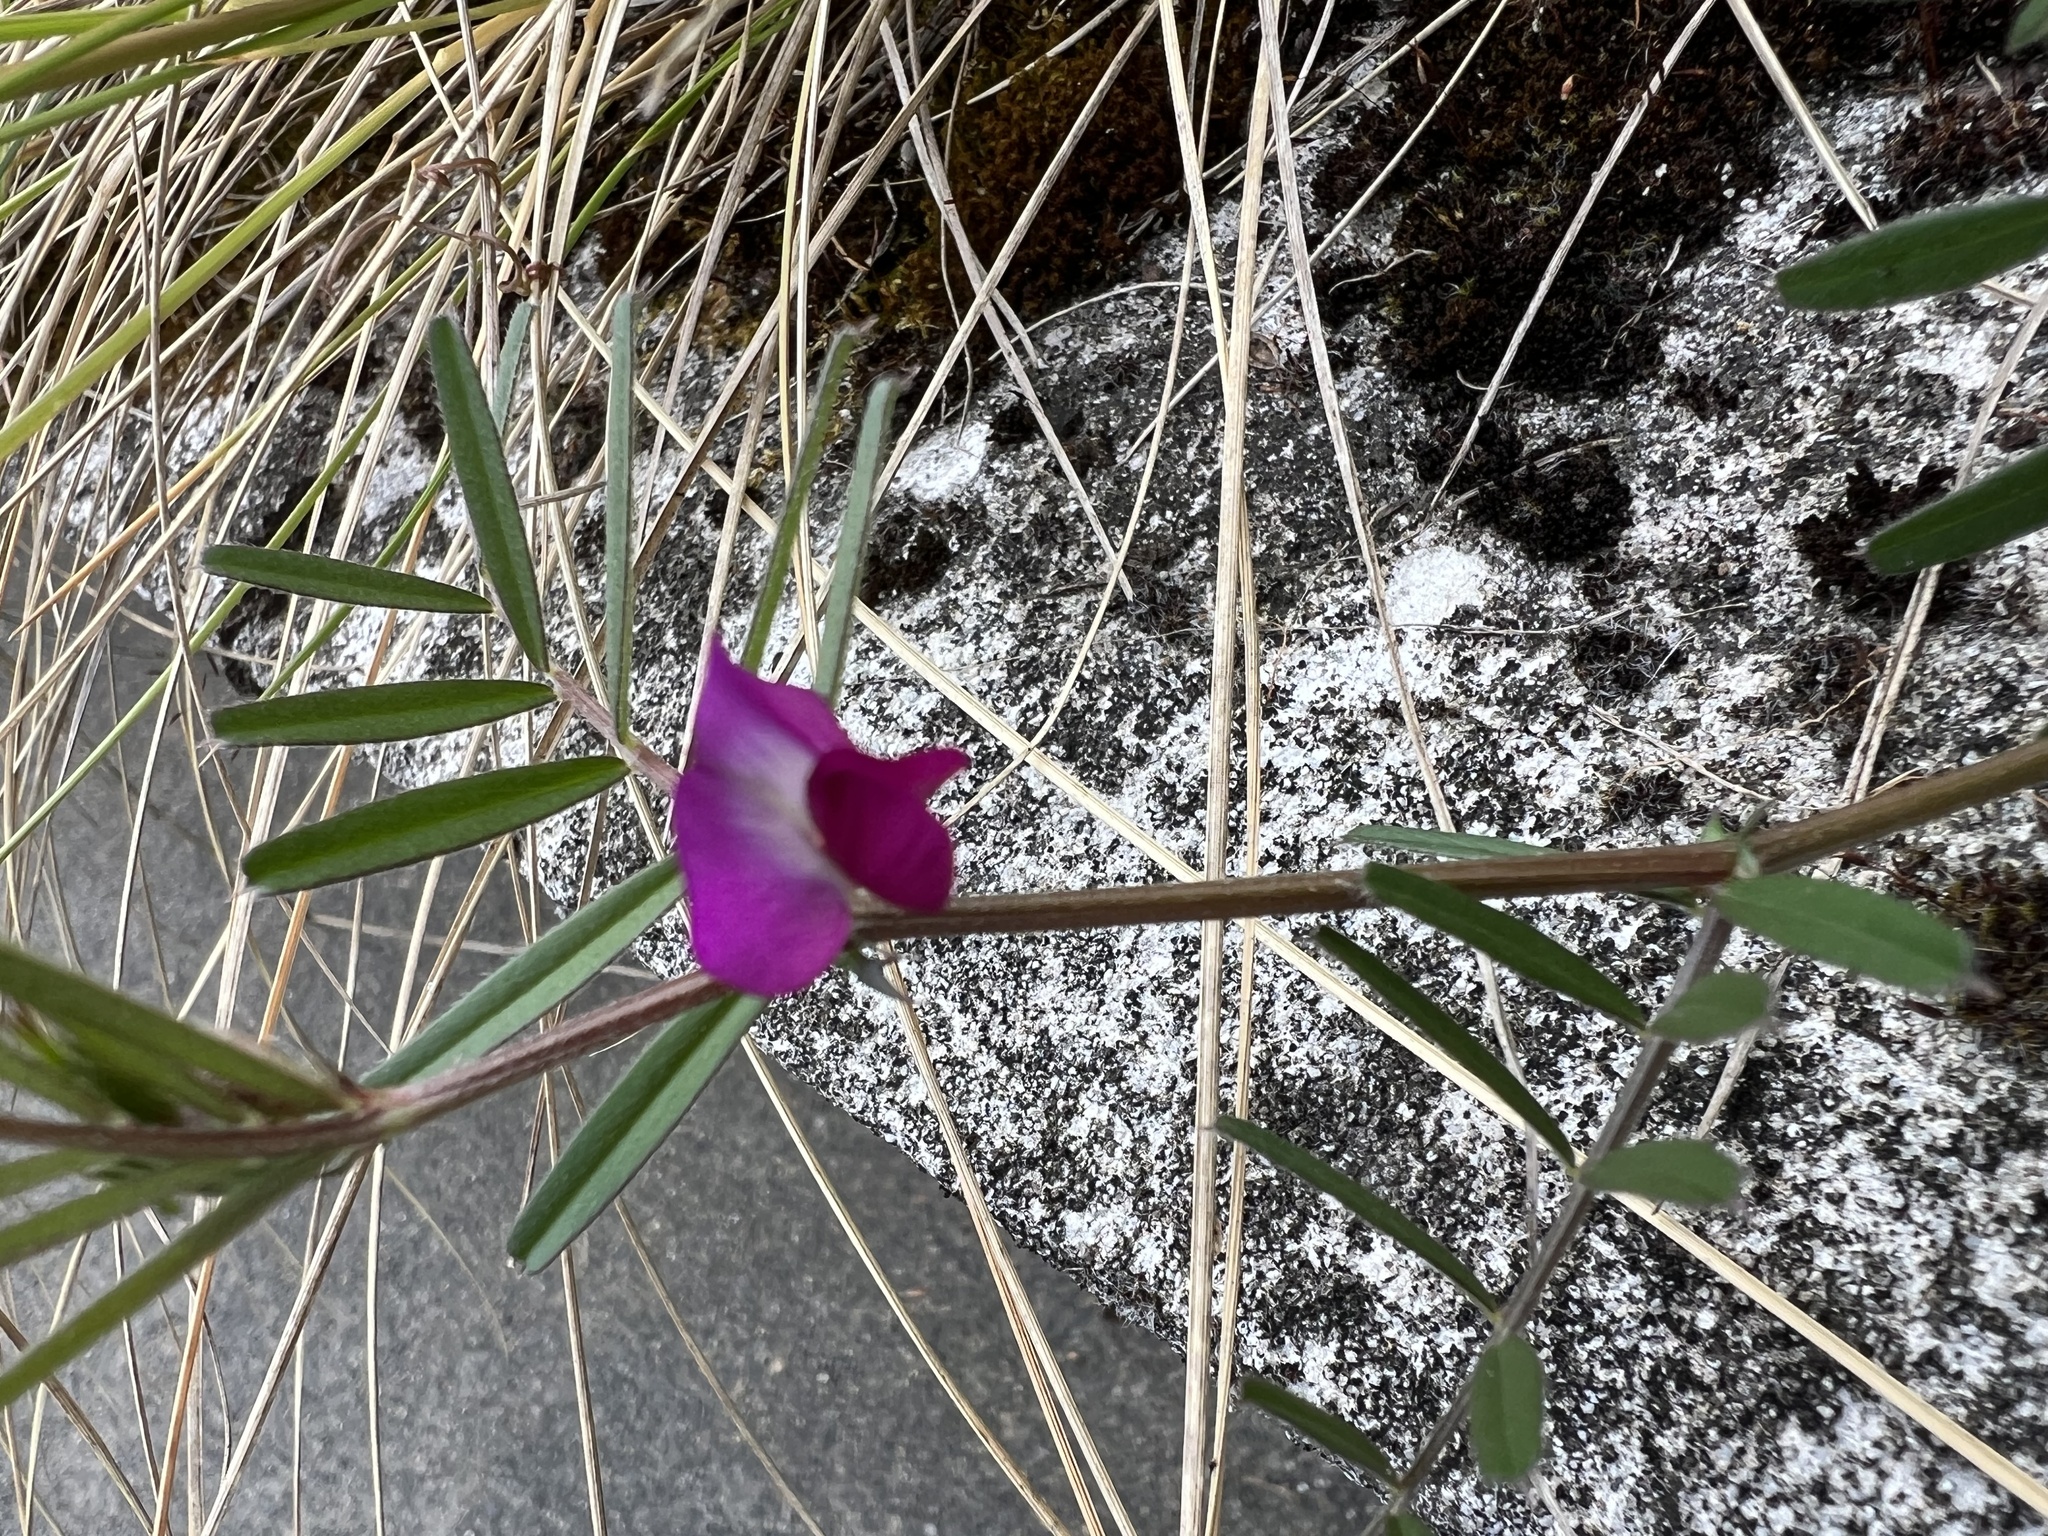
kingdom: Plantae
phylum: Tracheophyta
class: Magnoliopsida
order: Fabales
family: Fabaceae
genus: Vicia
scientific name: Vicia sativa
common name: Garden vetch
